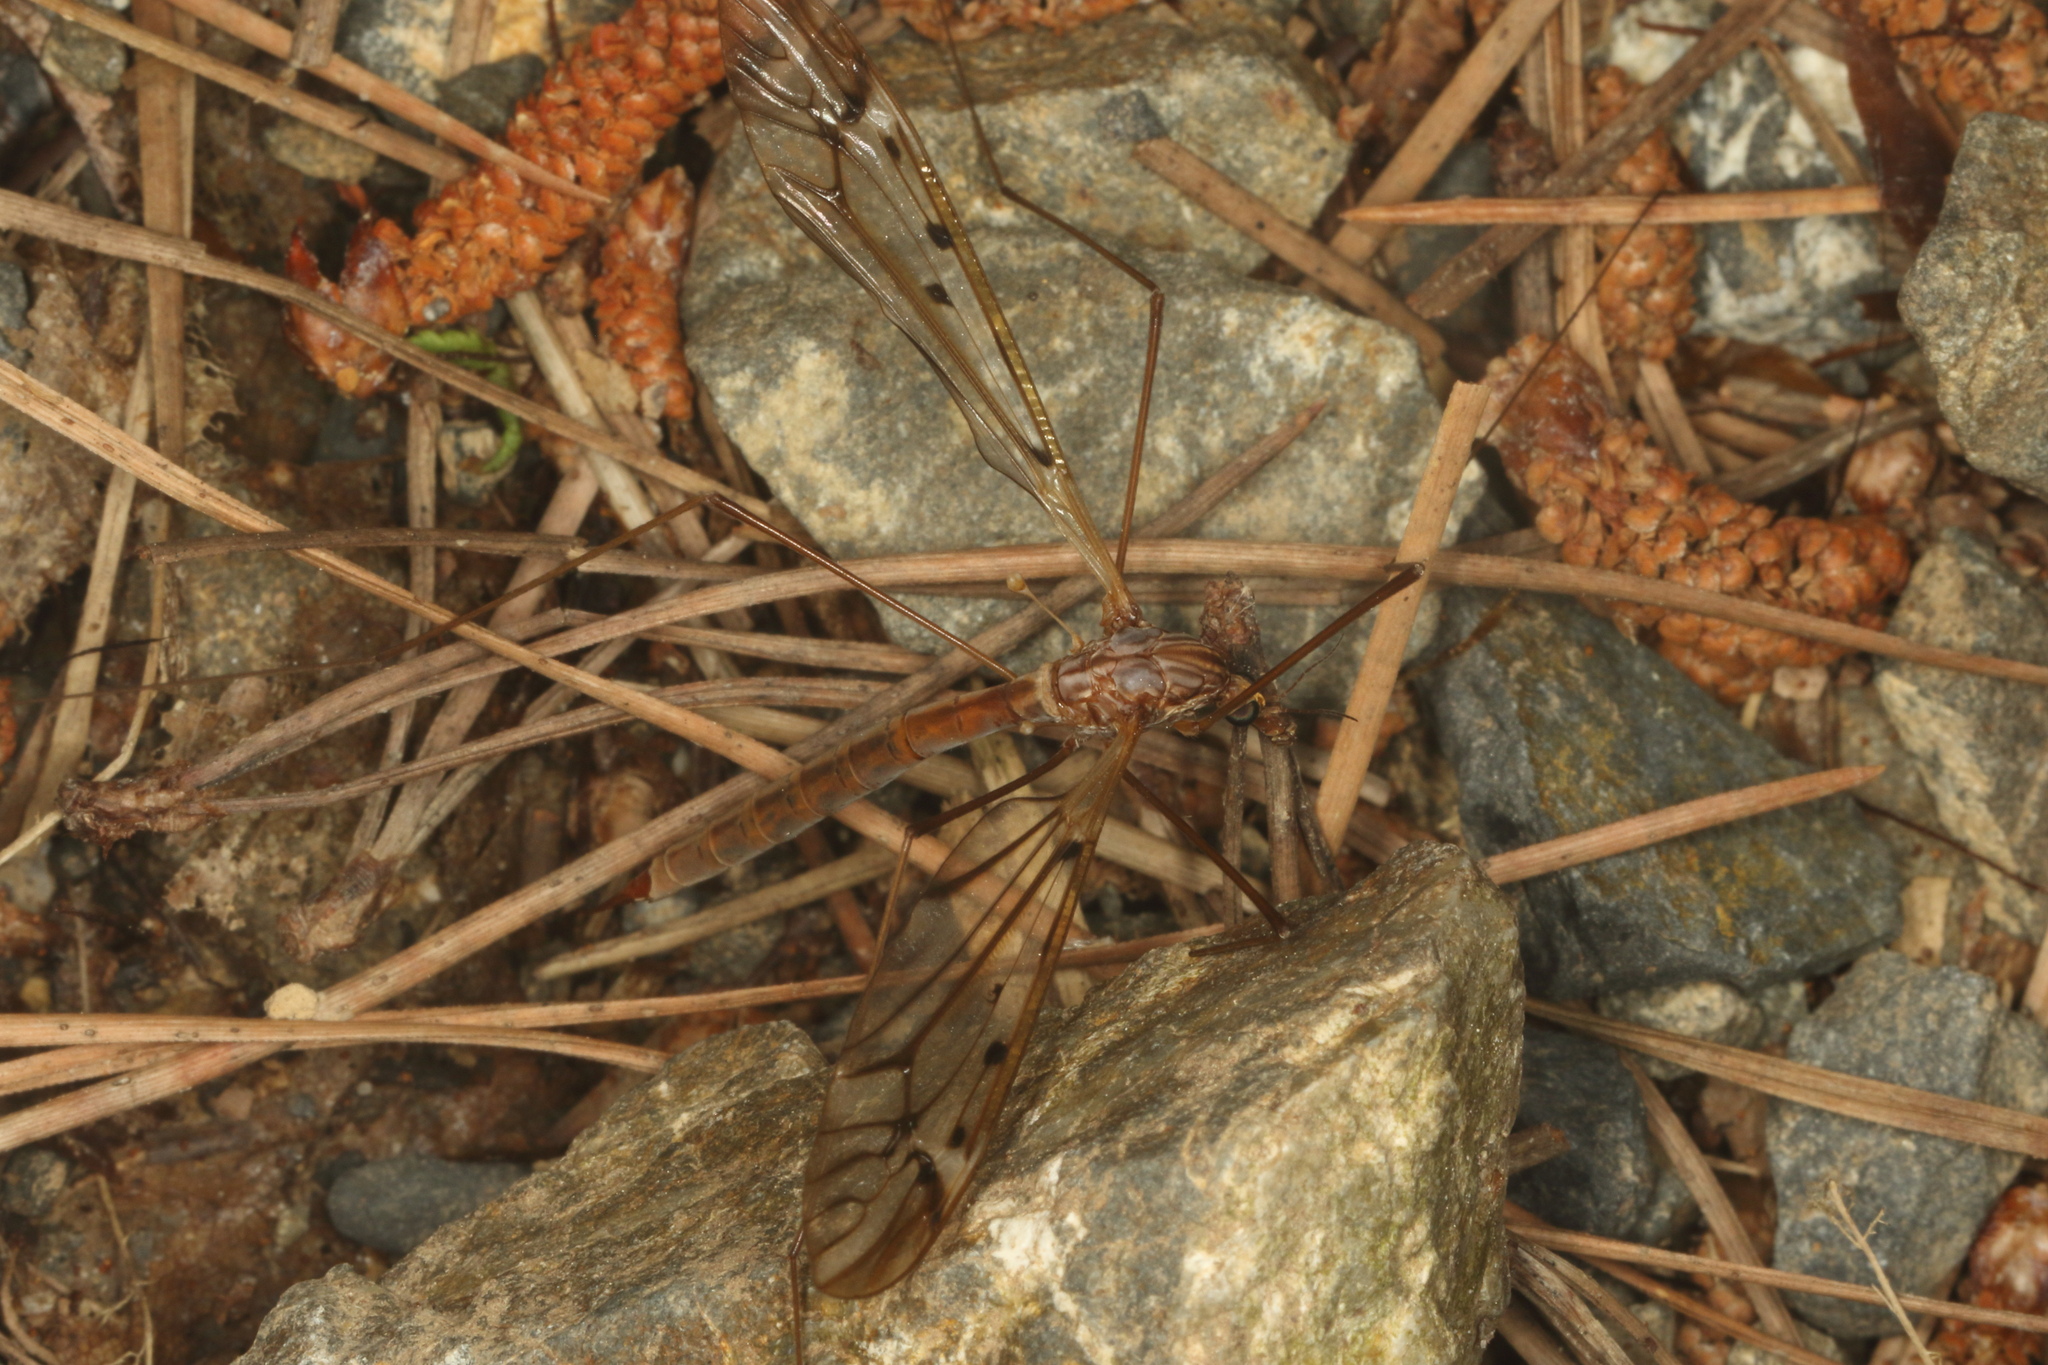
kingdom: Animalia
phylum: Arthropoda
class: Insecta
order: Diptera
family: Tipulidae
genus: Zelandotipula
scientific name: Zelandotipula novarae
